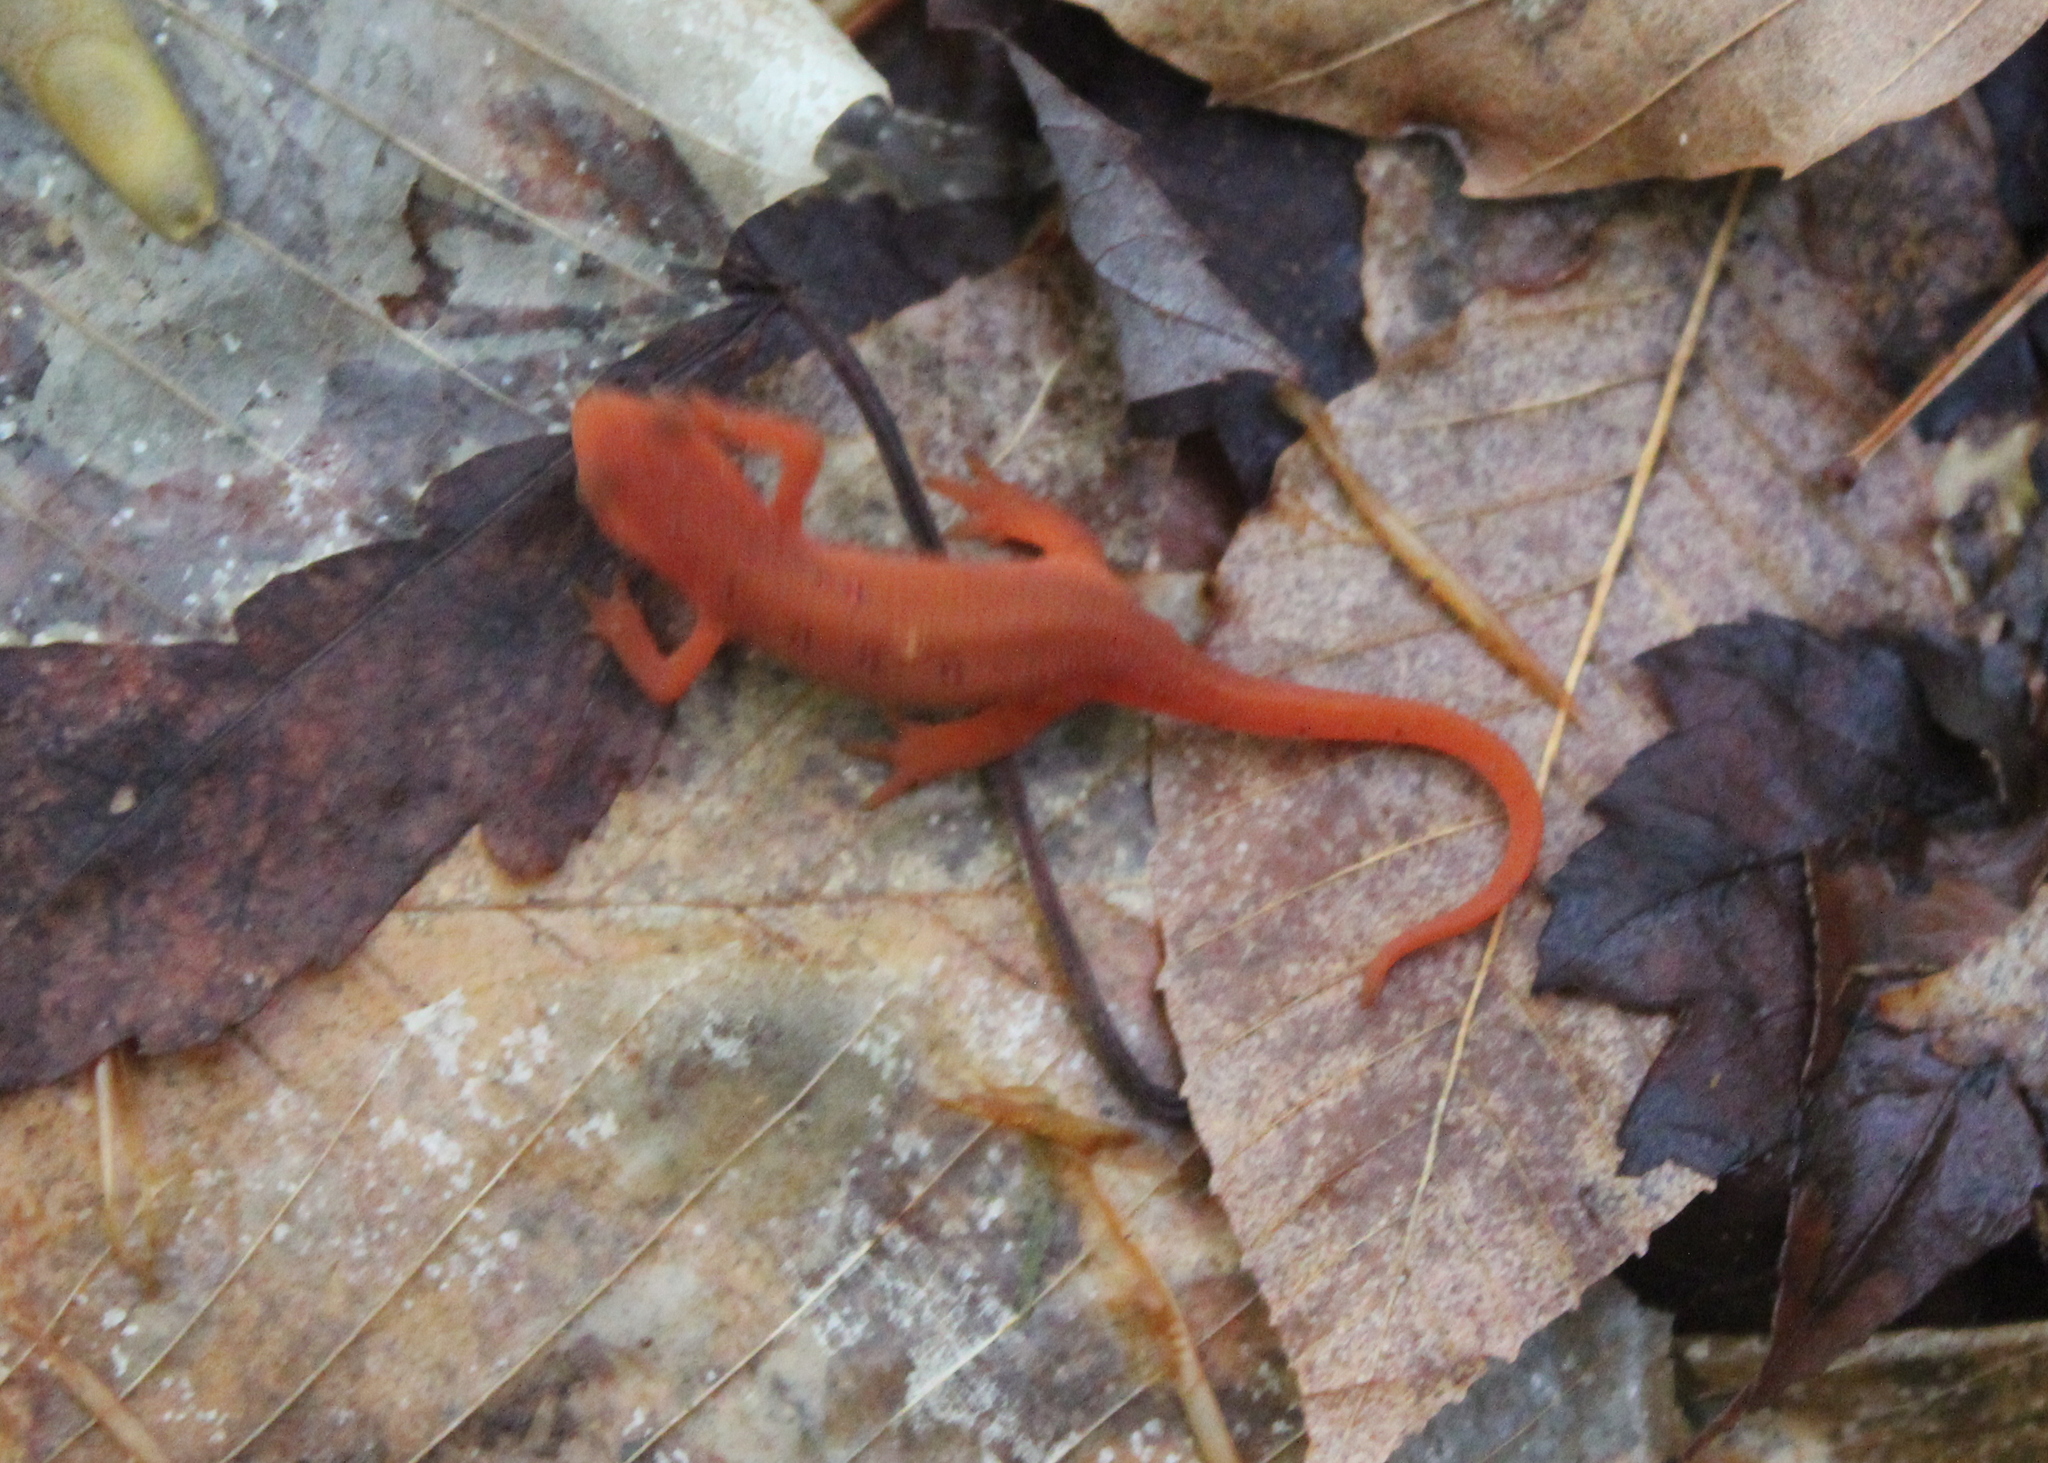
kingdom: Animalia
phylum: Chordata
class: Amphibia
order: Caudata
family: Salamandridae
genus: Notophthalmus
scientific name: Notophthalmus viridescens
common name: Eastern newt
